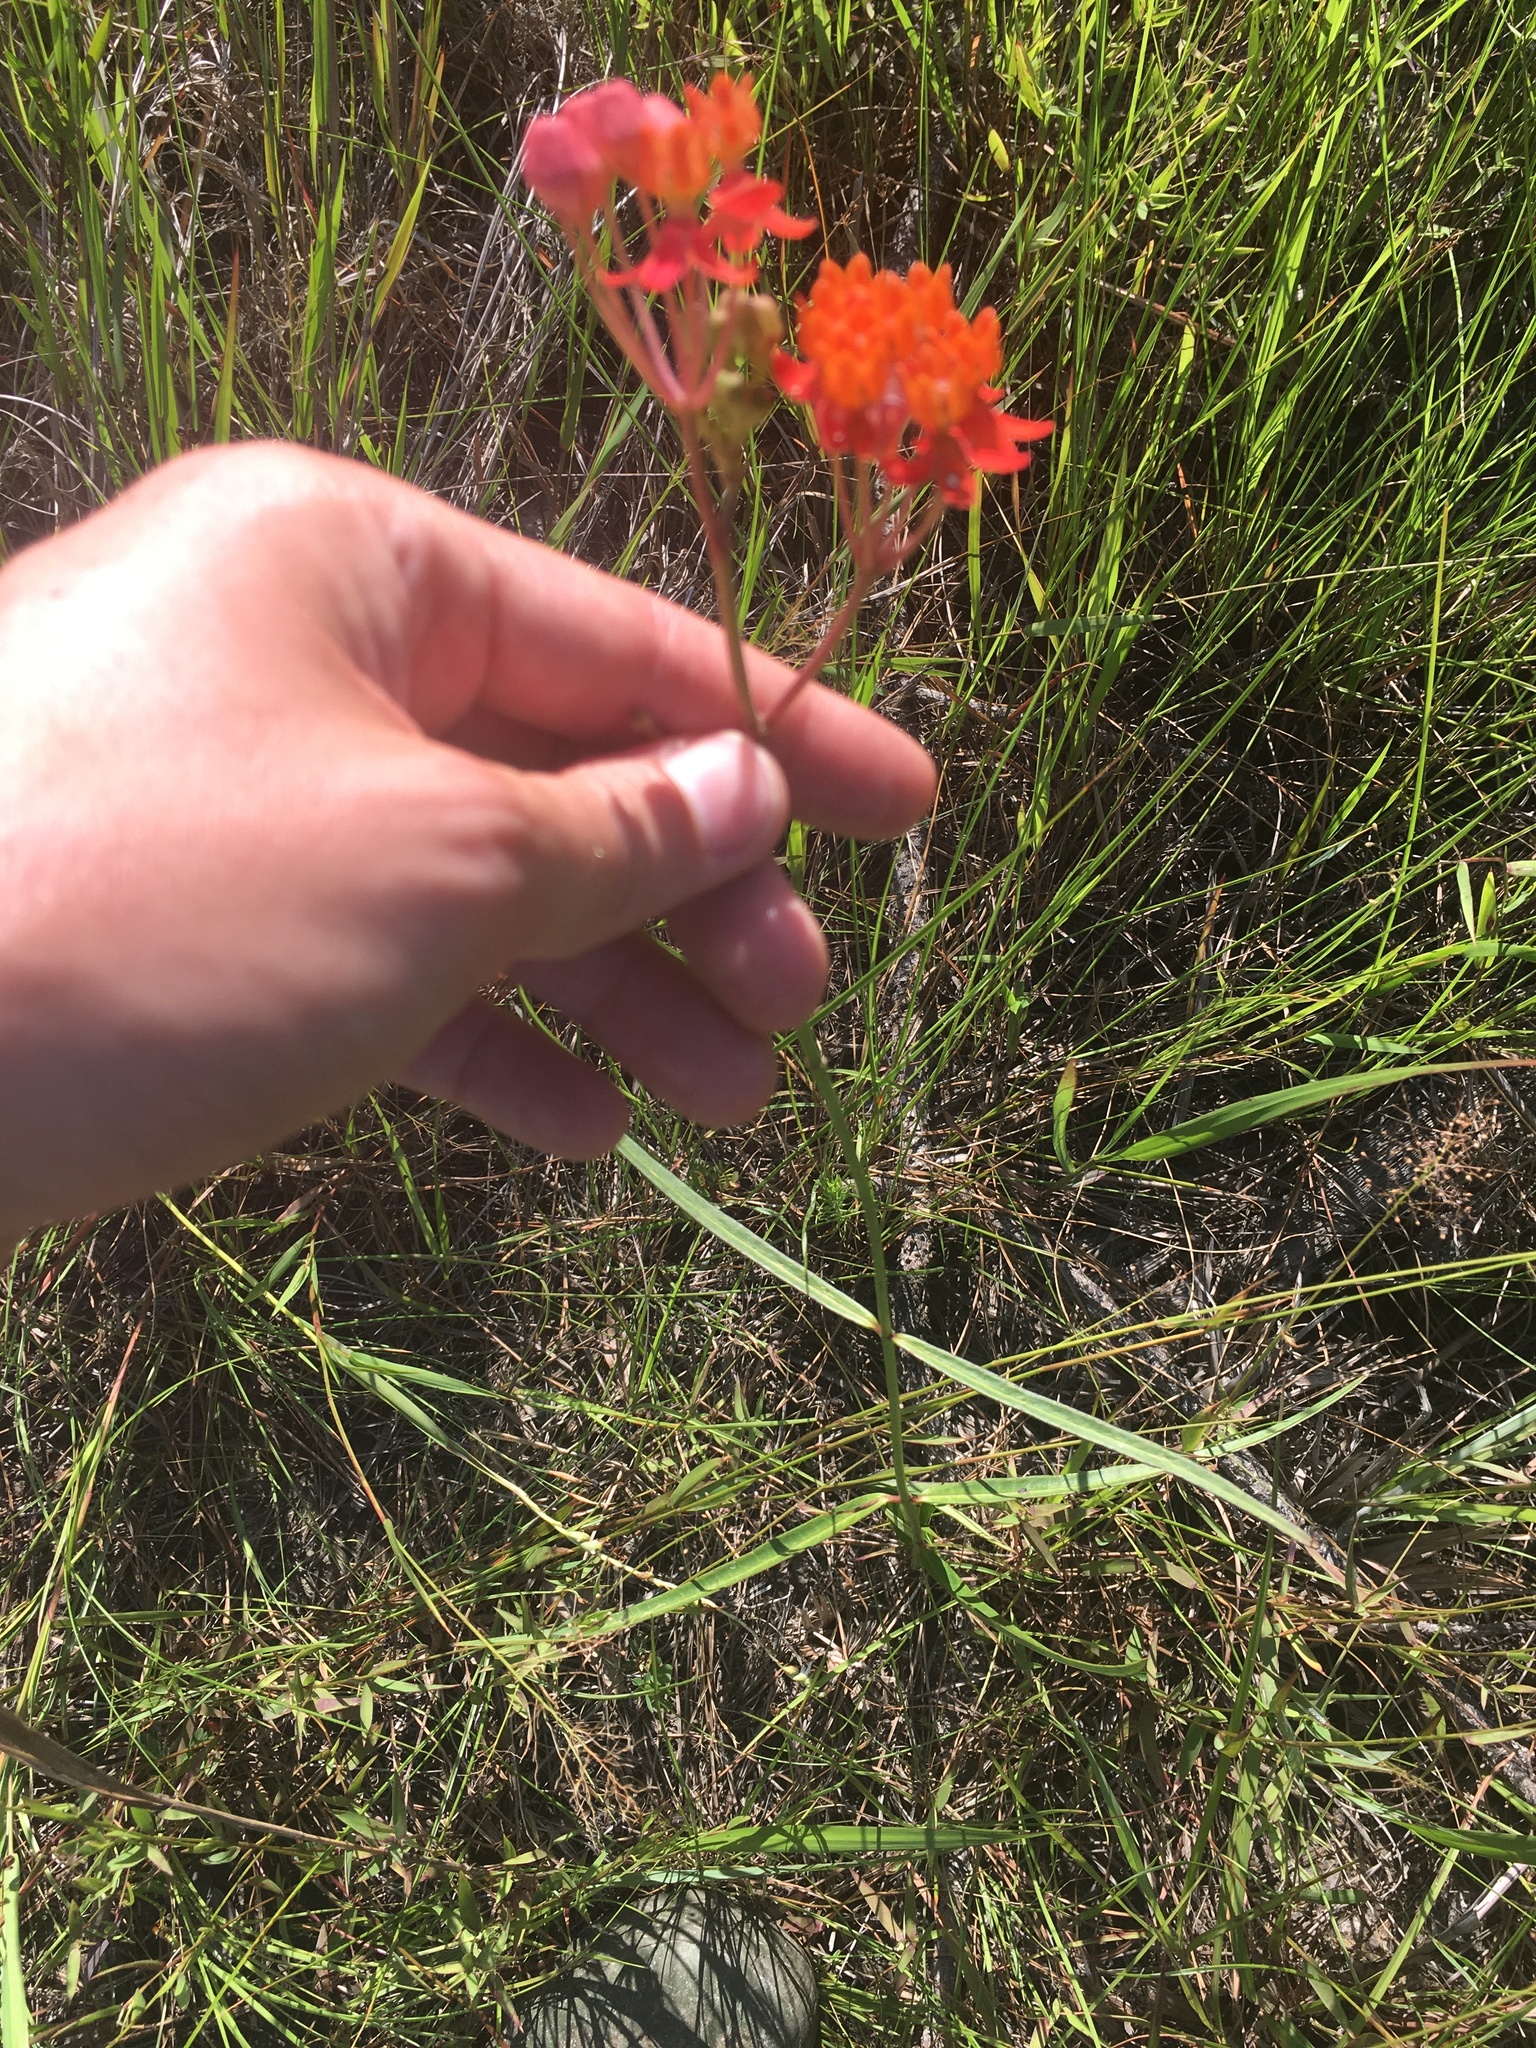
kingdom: Plantae
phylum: Tracheophyta
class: Magnoliopsida
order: Gentianales
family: Apocynaceae
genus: Asclepias
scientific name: Asclepias lanceolata
